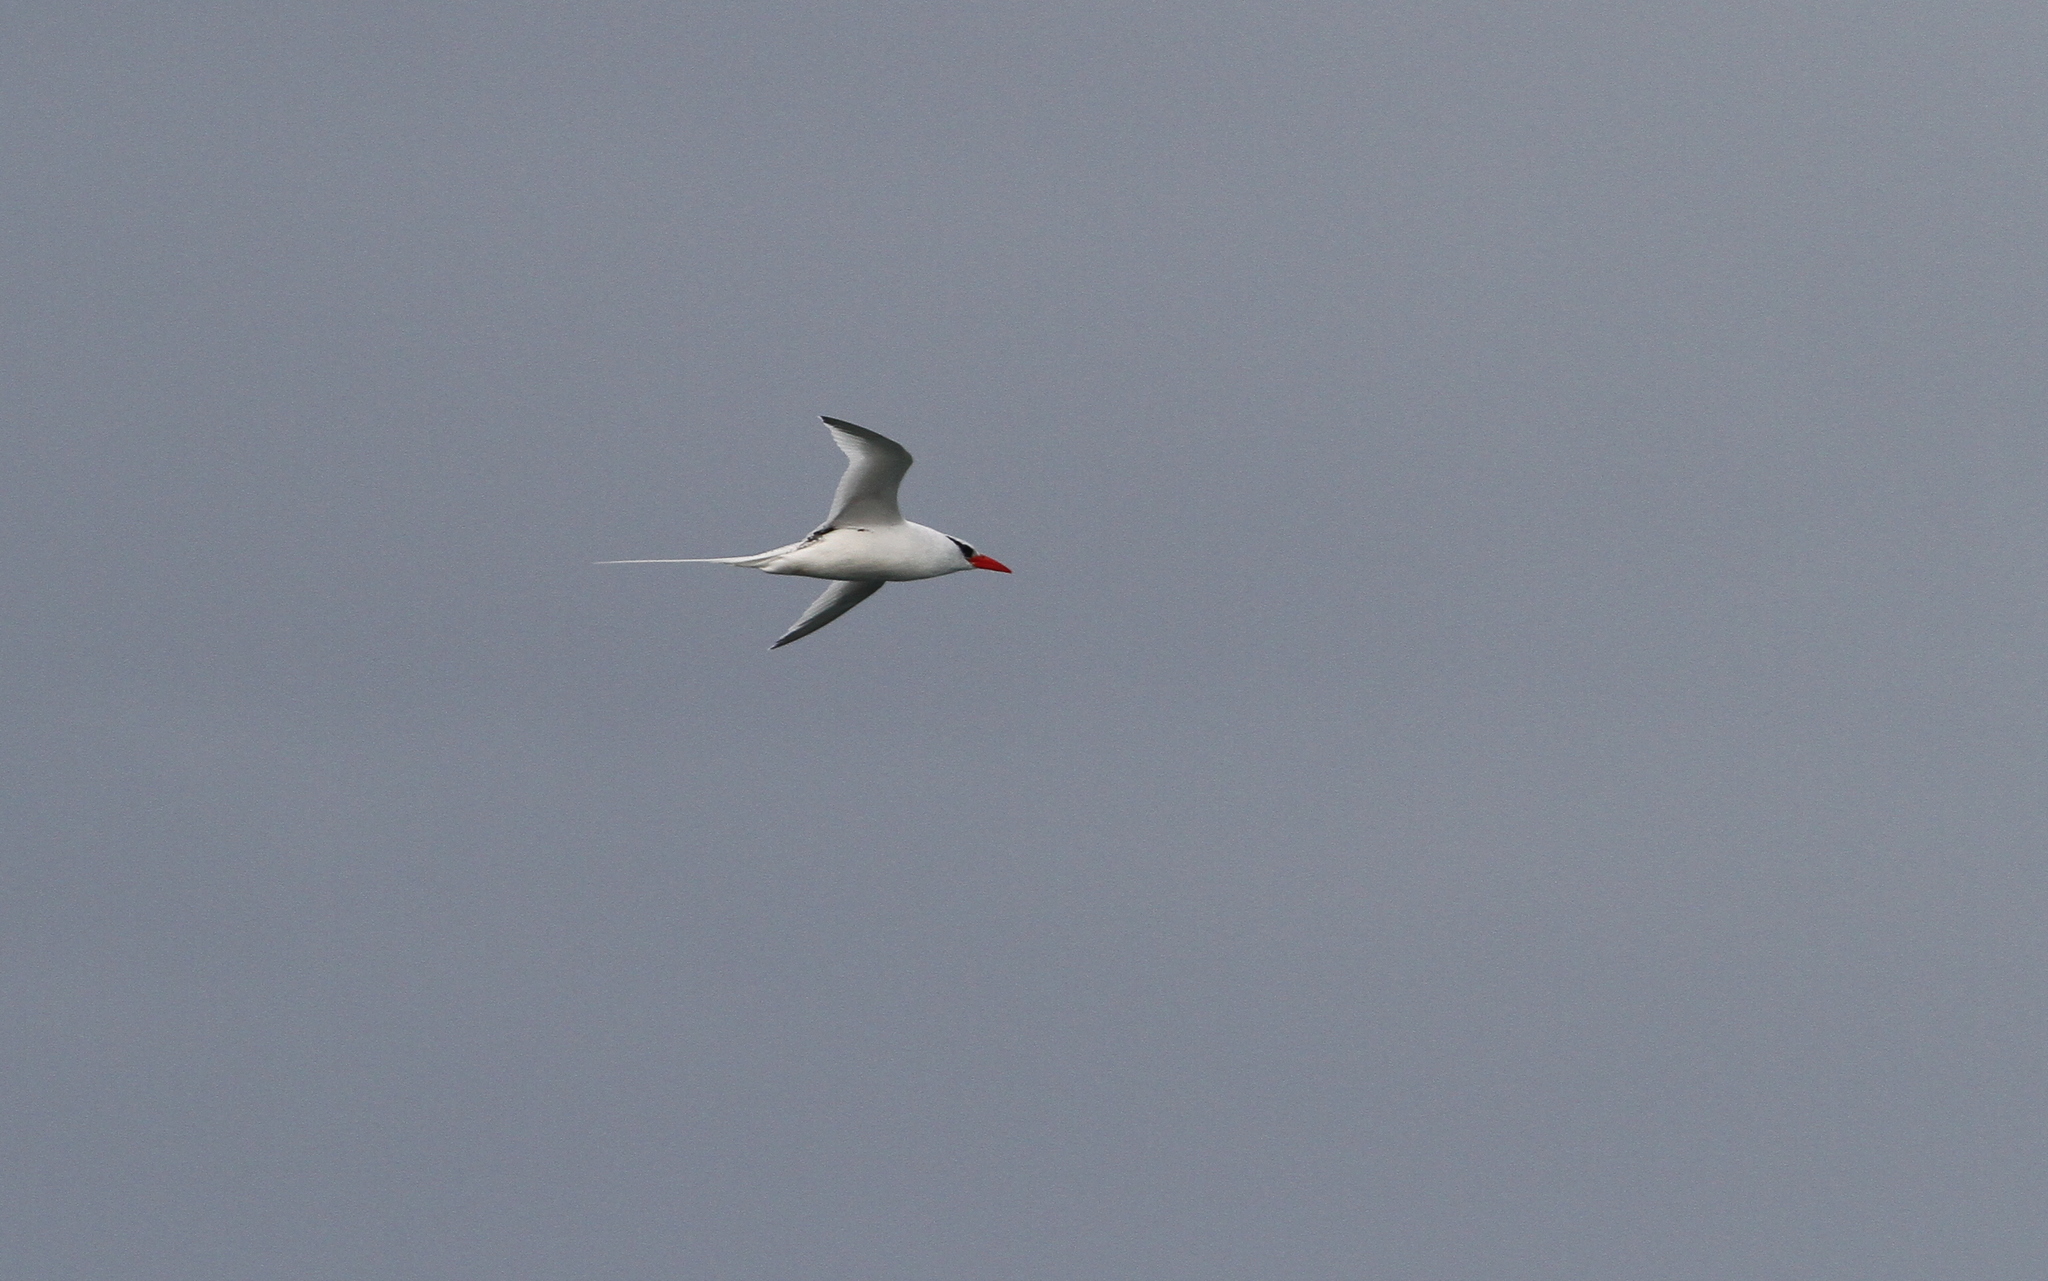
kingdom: Animalia
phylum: Chordata
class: Aves
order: Phaethontiformes
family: Phaethontidae
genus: Phaethon
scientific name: Phaethon aethereus
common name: Red-billed tropicbird
